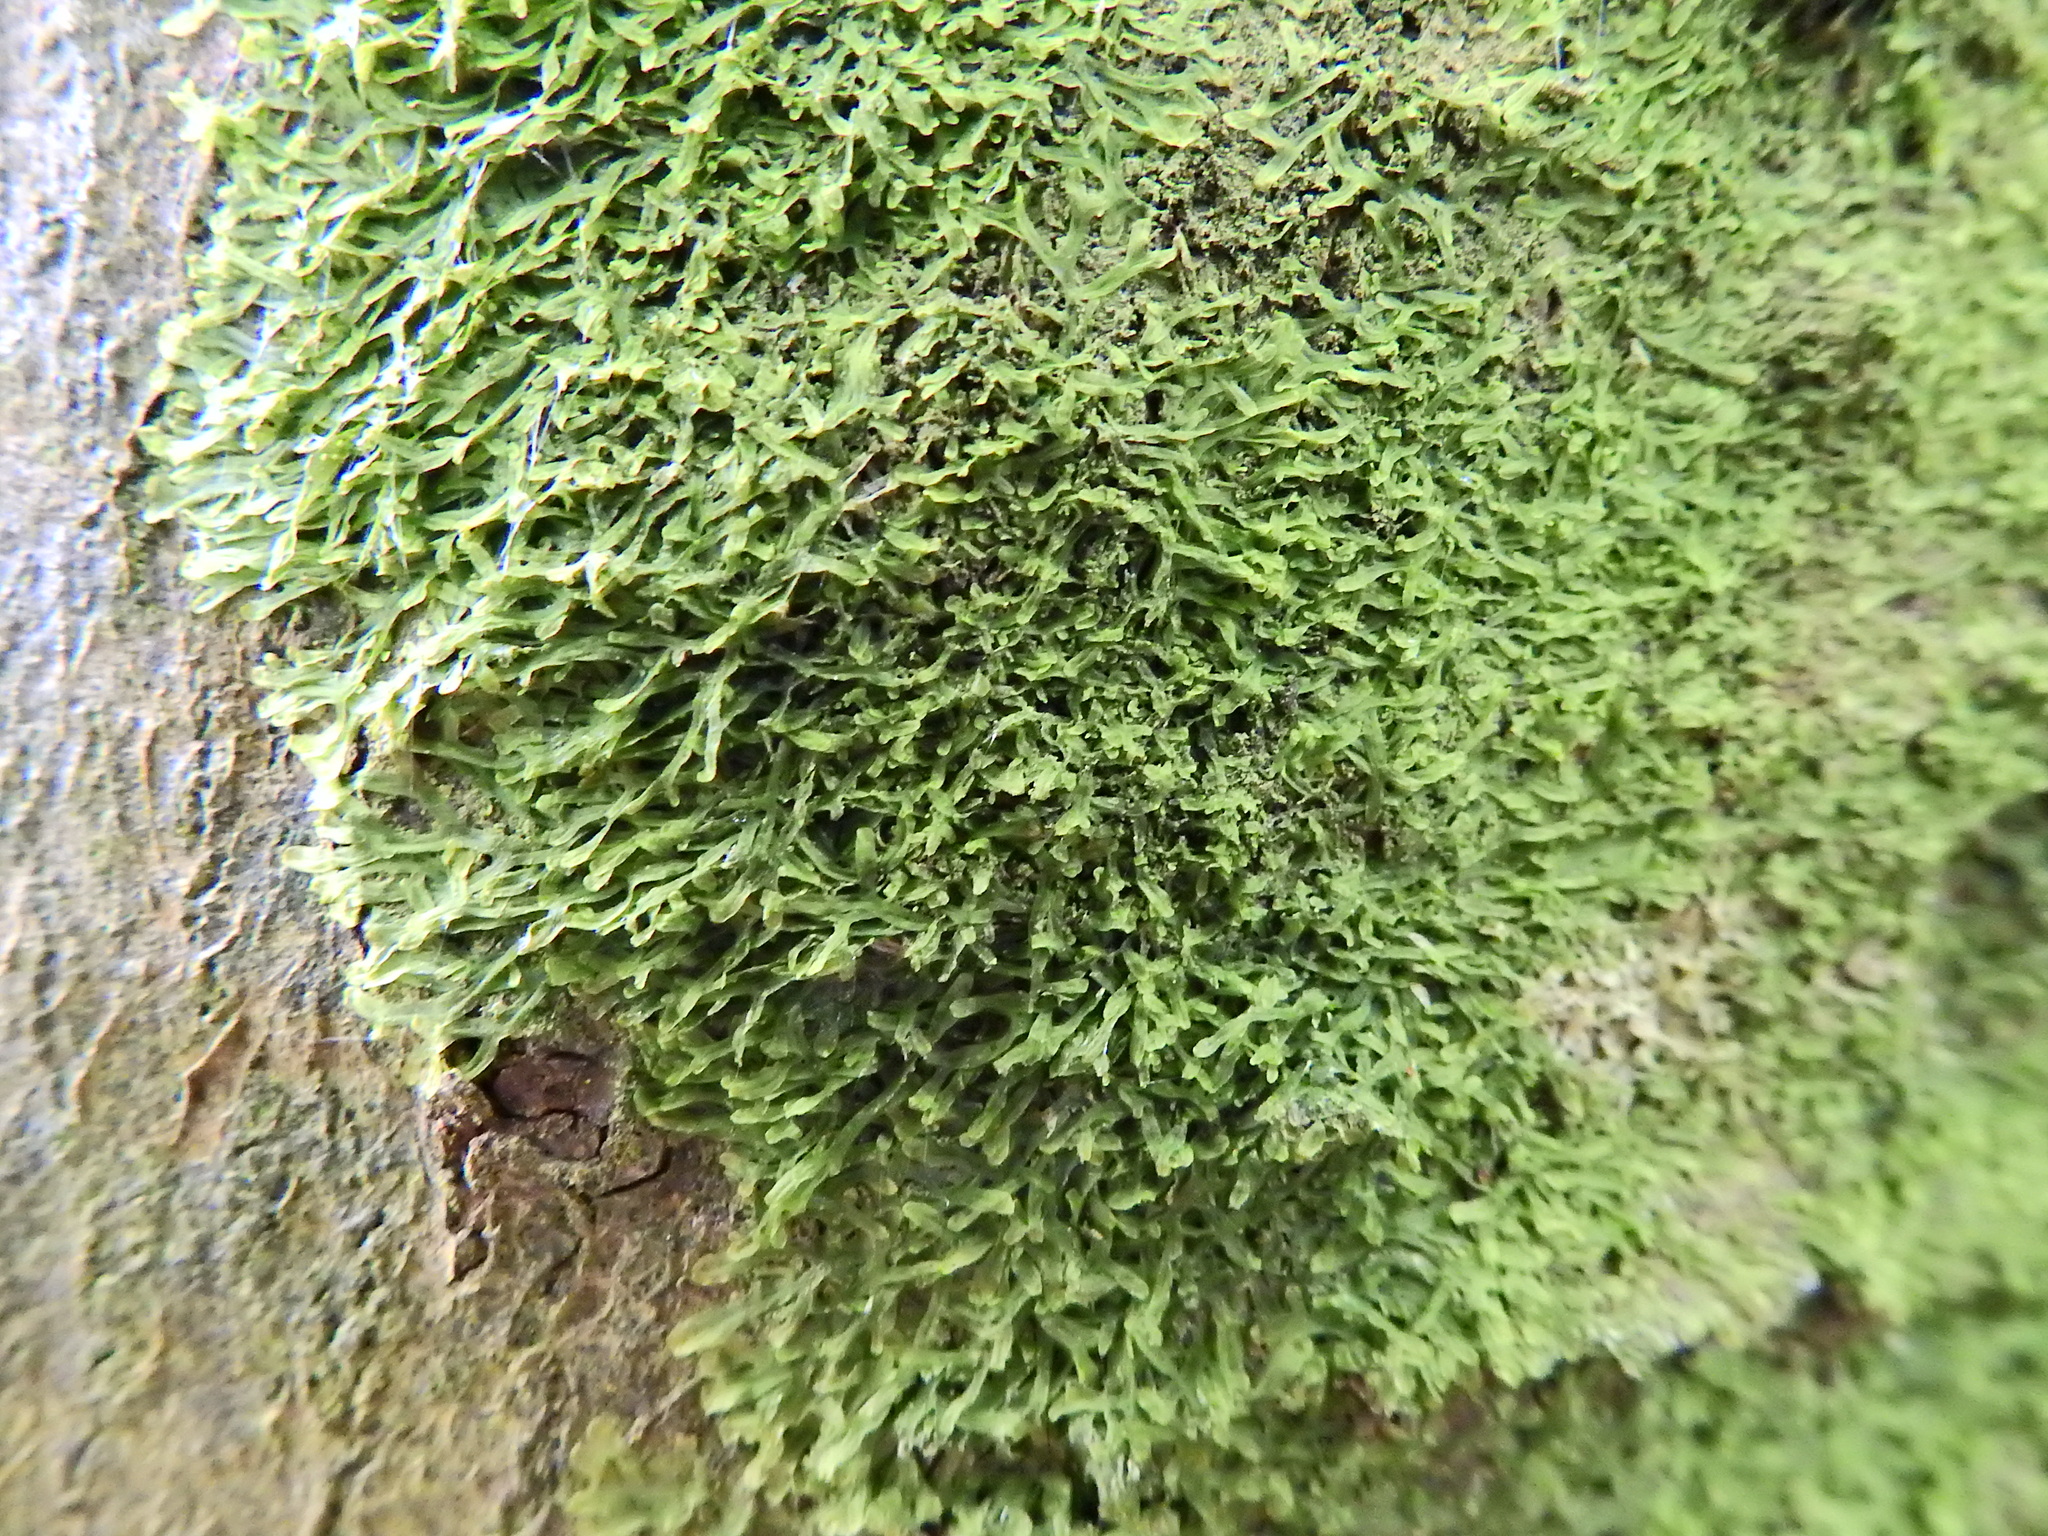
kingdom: Plantae
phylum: Marchantiophyta
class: Jungermanniopsida
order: Metzgeriales
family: Metzgeriaceae
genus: Metzgeria
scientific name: Metzgeria furcata
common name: Forked veilwort
